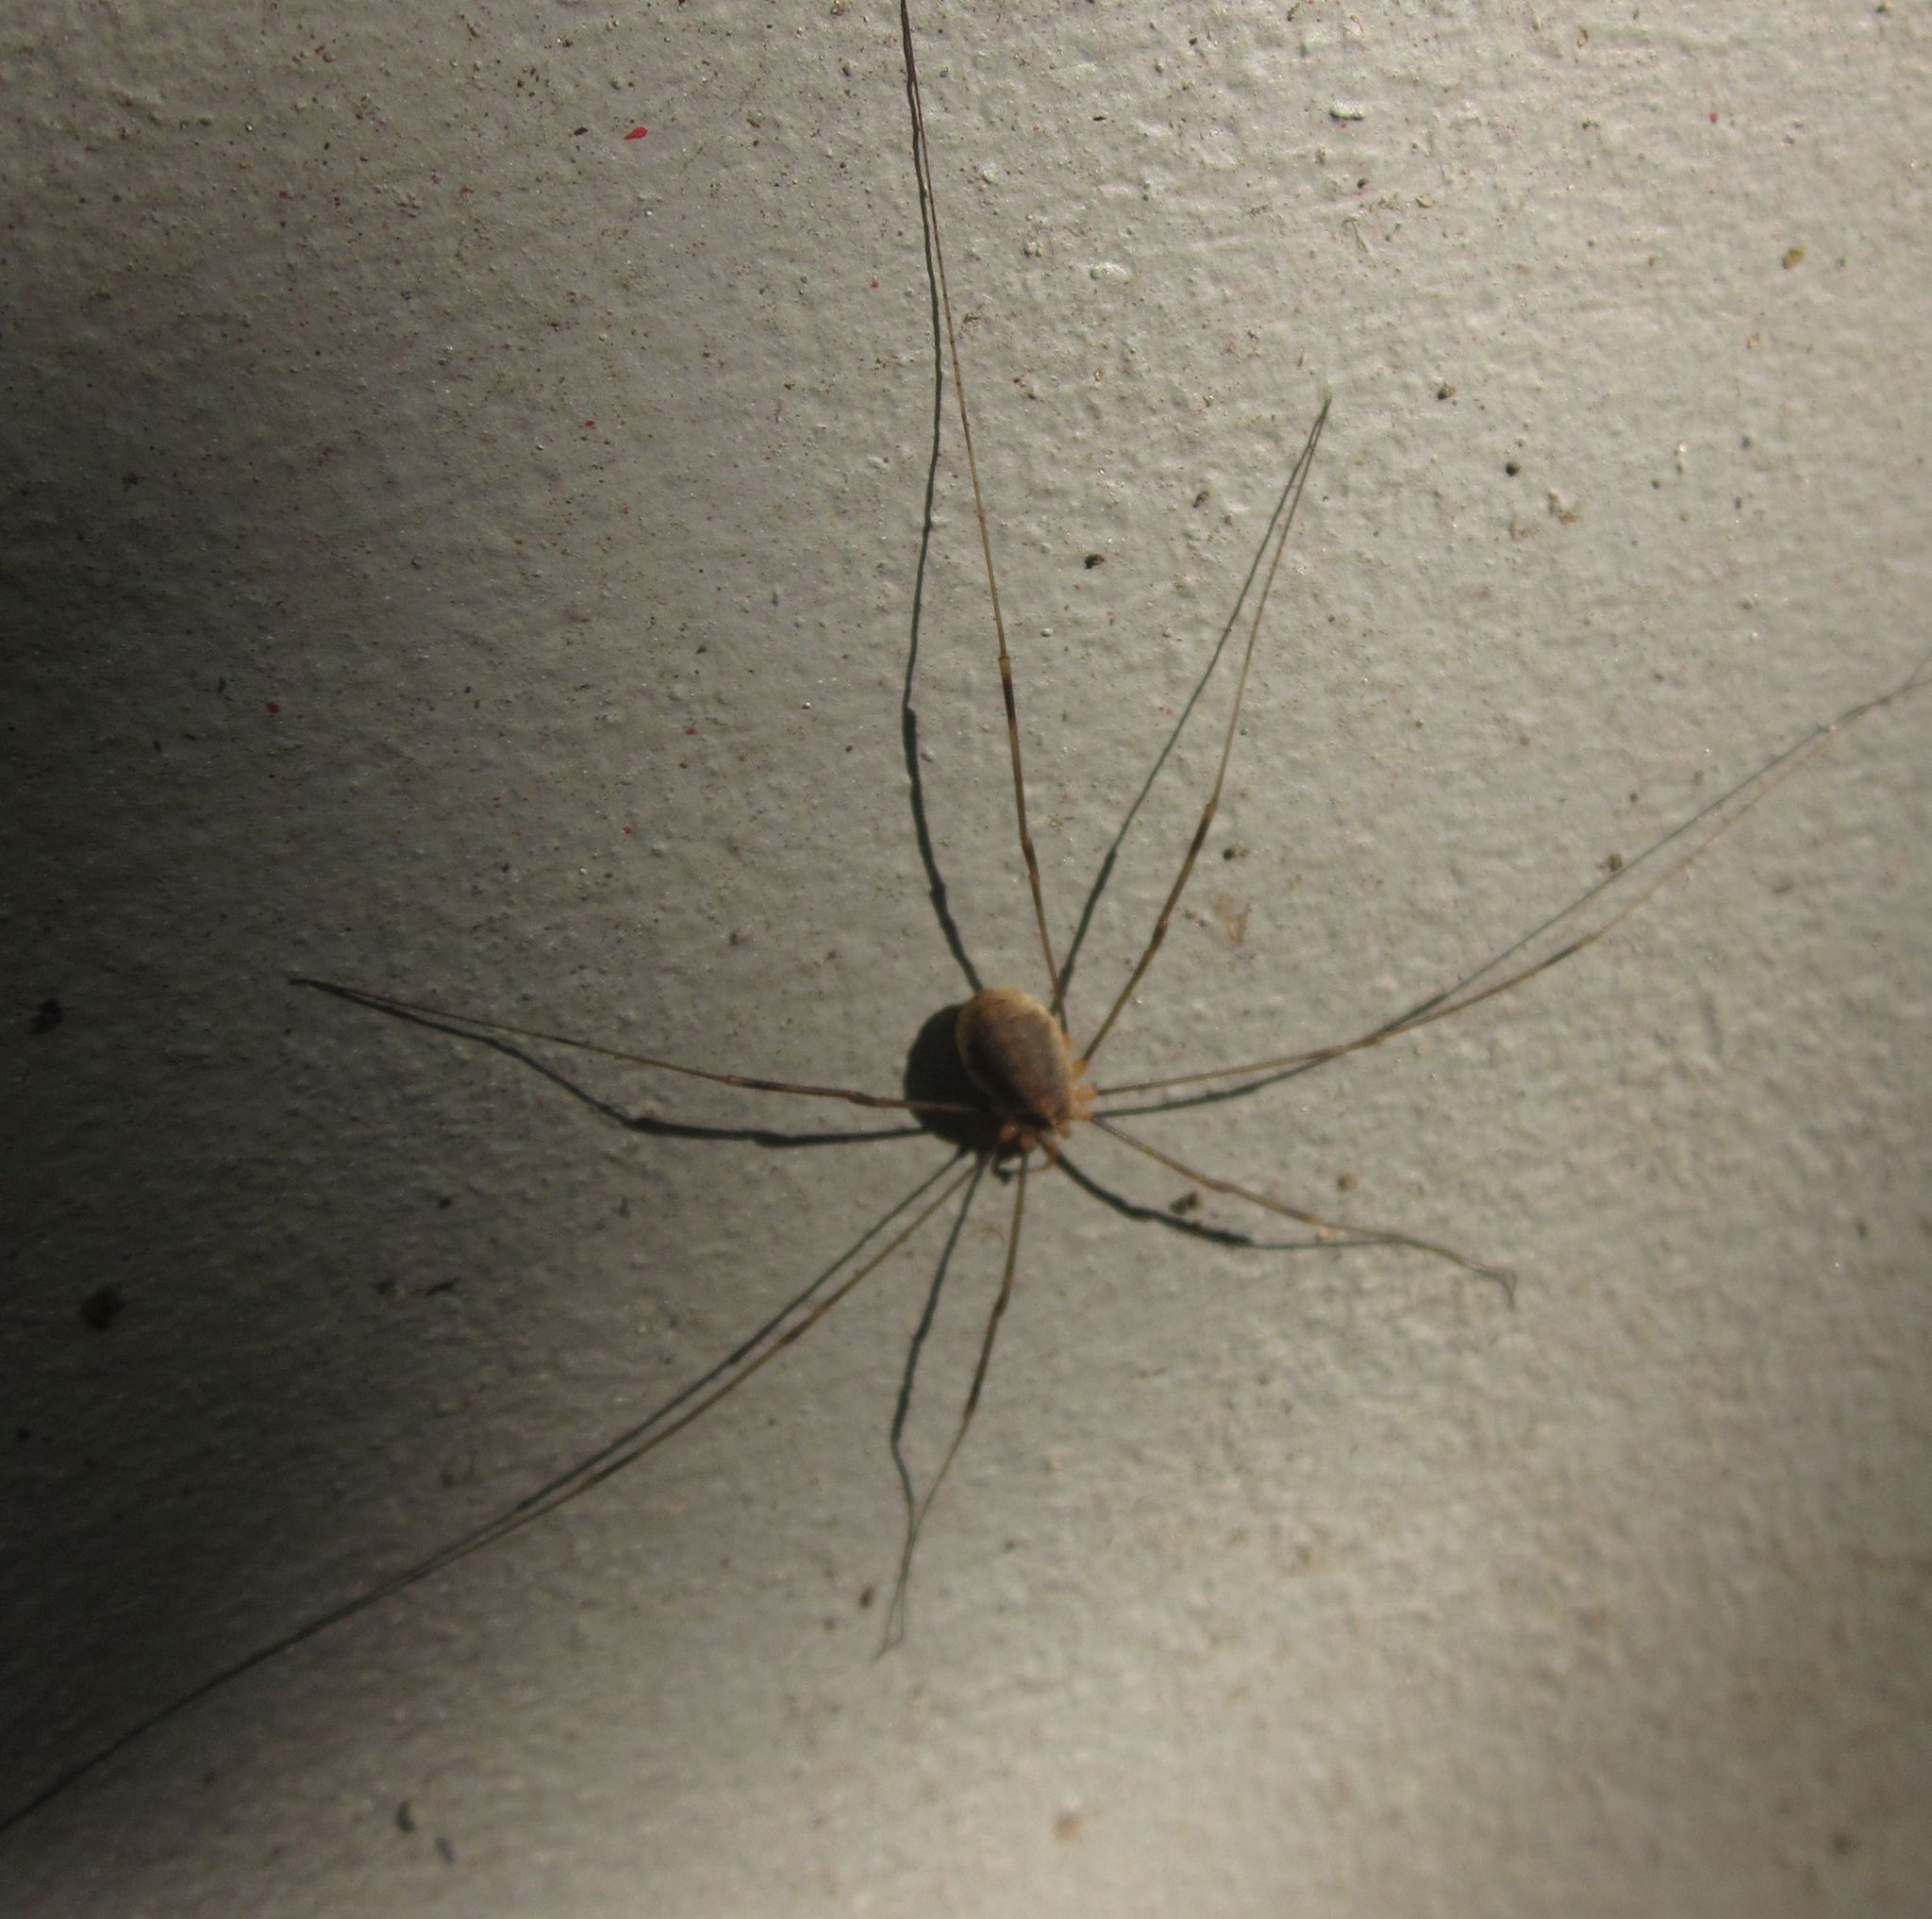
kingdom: Animalia
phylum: Arthropoda
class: Arachnida
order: Opiliones
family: Phalangiidae
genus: Opilio
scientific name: Opilio canestrinii
